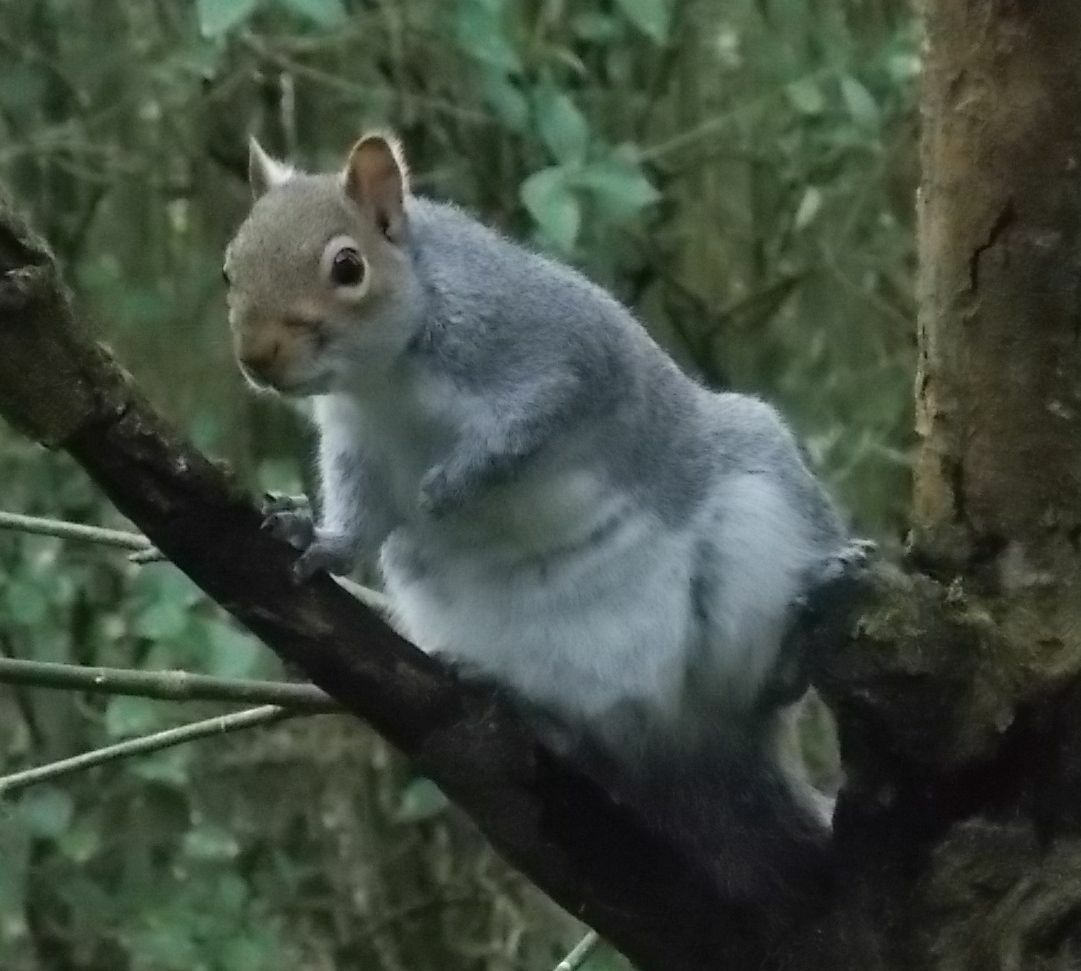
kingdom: Animalia
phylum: Chordata
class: Mammalia
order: Rodentia
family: Sciuridae
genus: Sciurus
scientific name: Sciurus carolinensis
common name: Eastern gray squirrel
